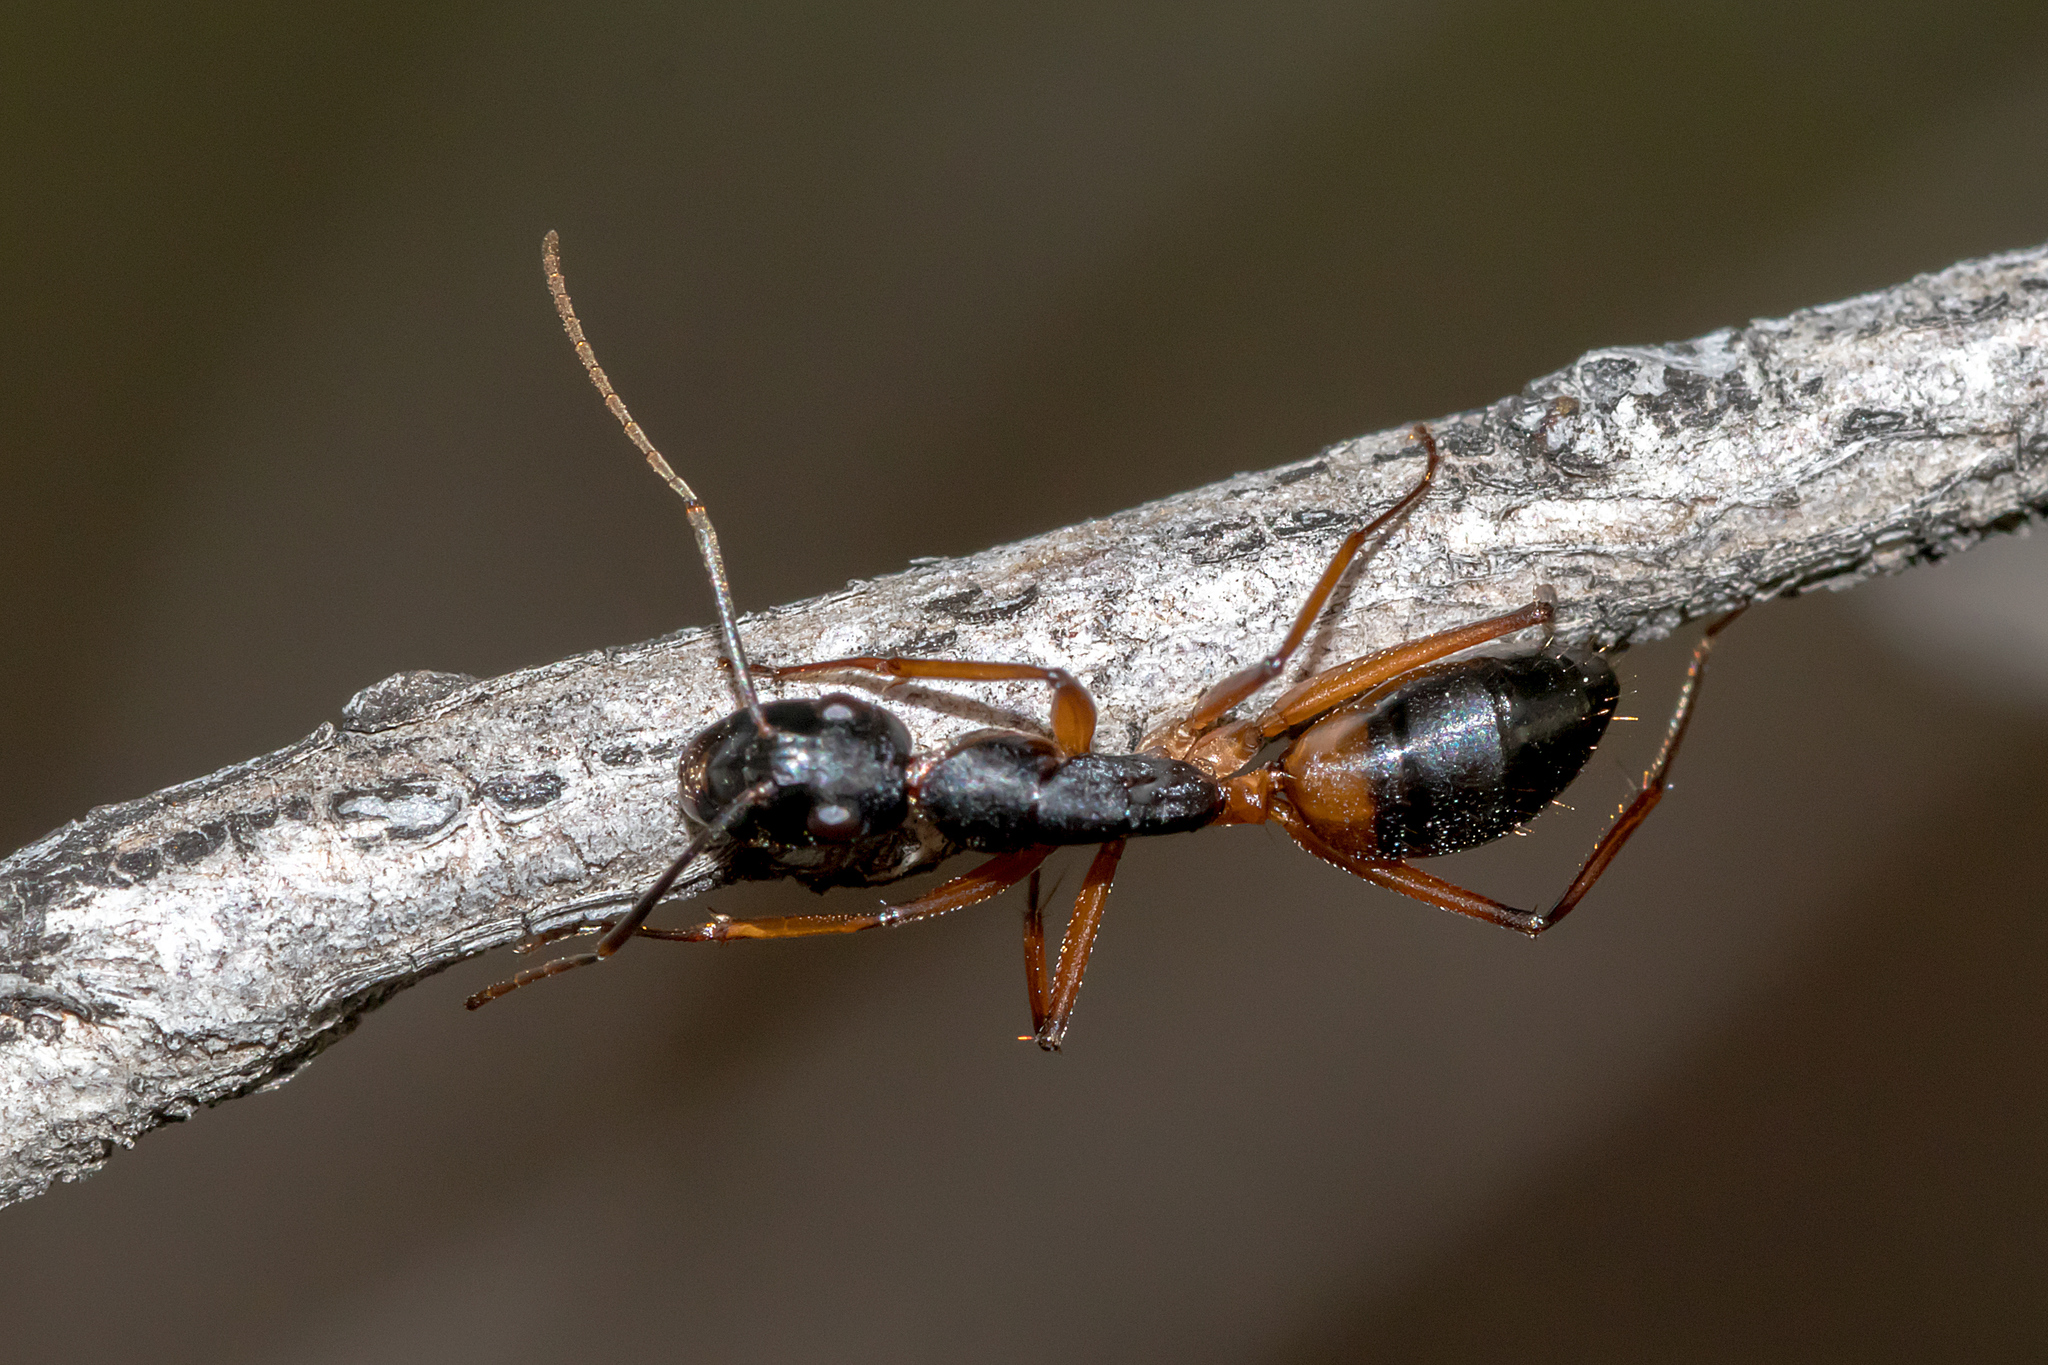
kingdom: Animalia
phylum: Arthropoda
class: Insecta
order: Hymenoptera
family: Formicidae
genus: Camponotus
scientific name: Camponotus consobrinus
